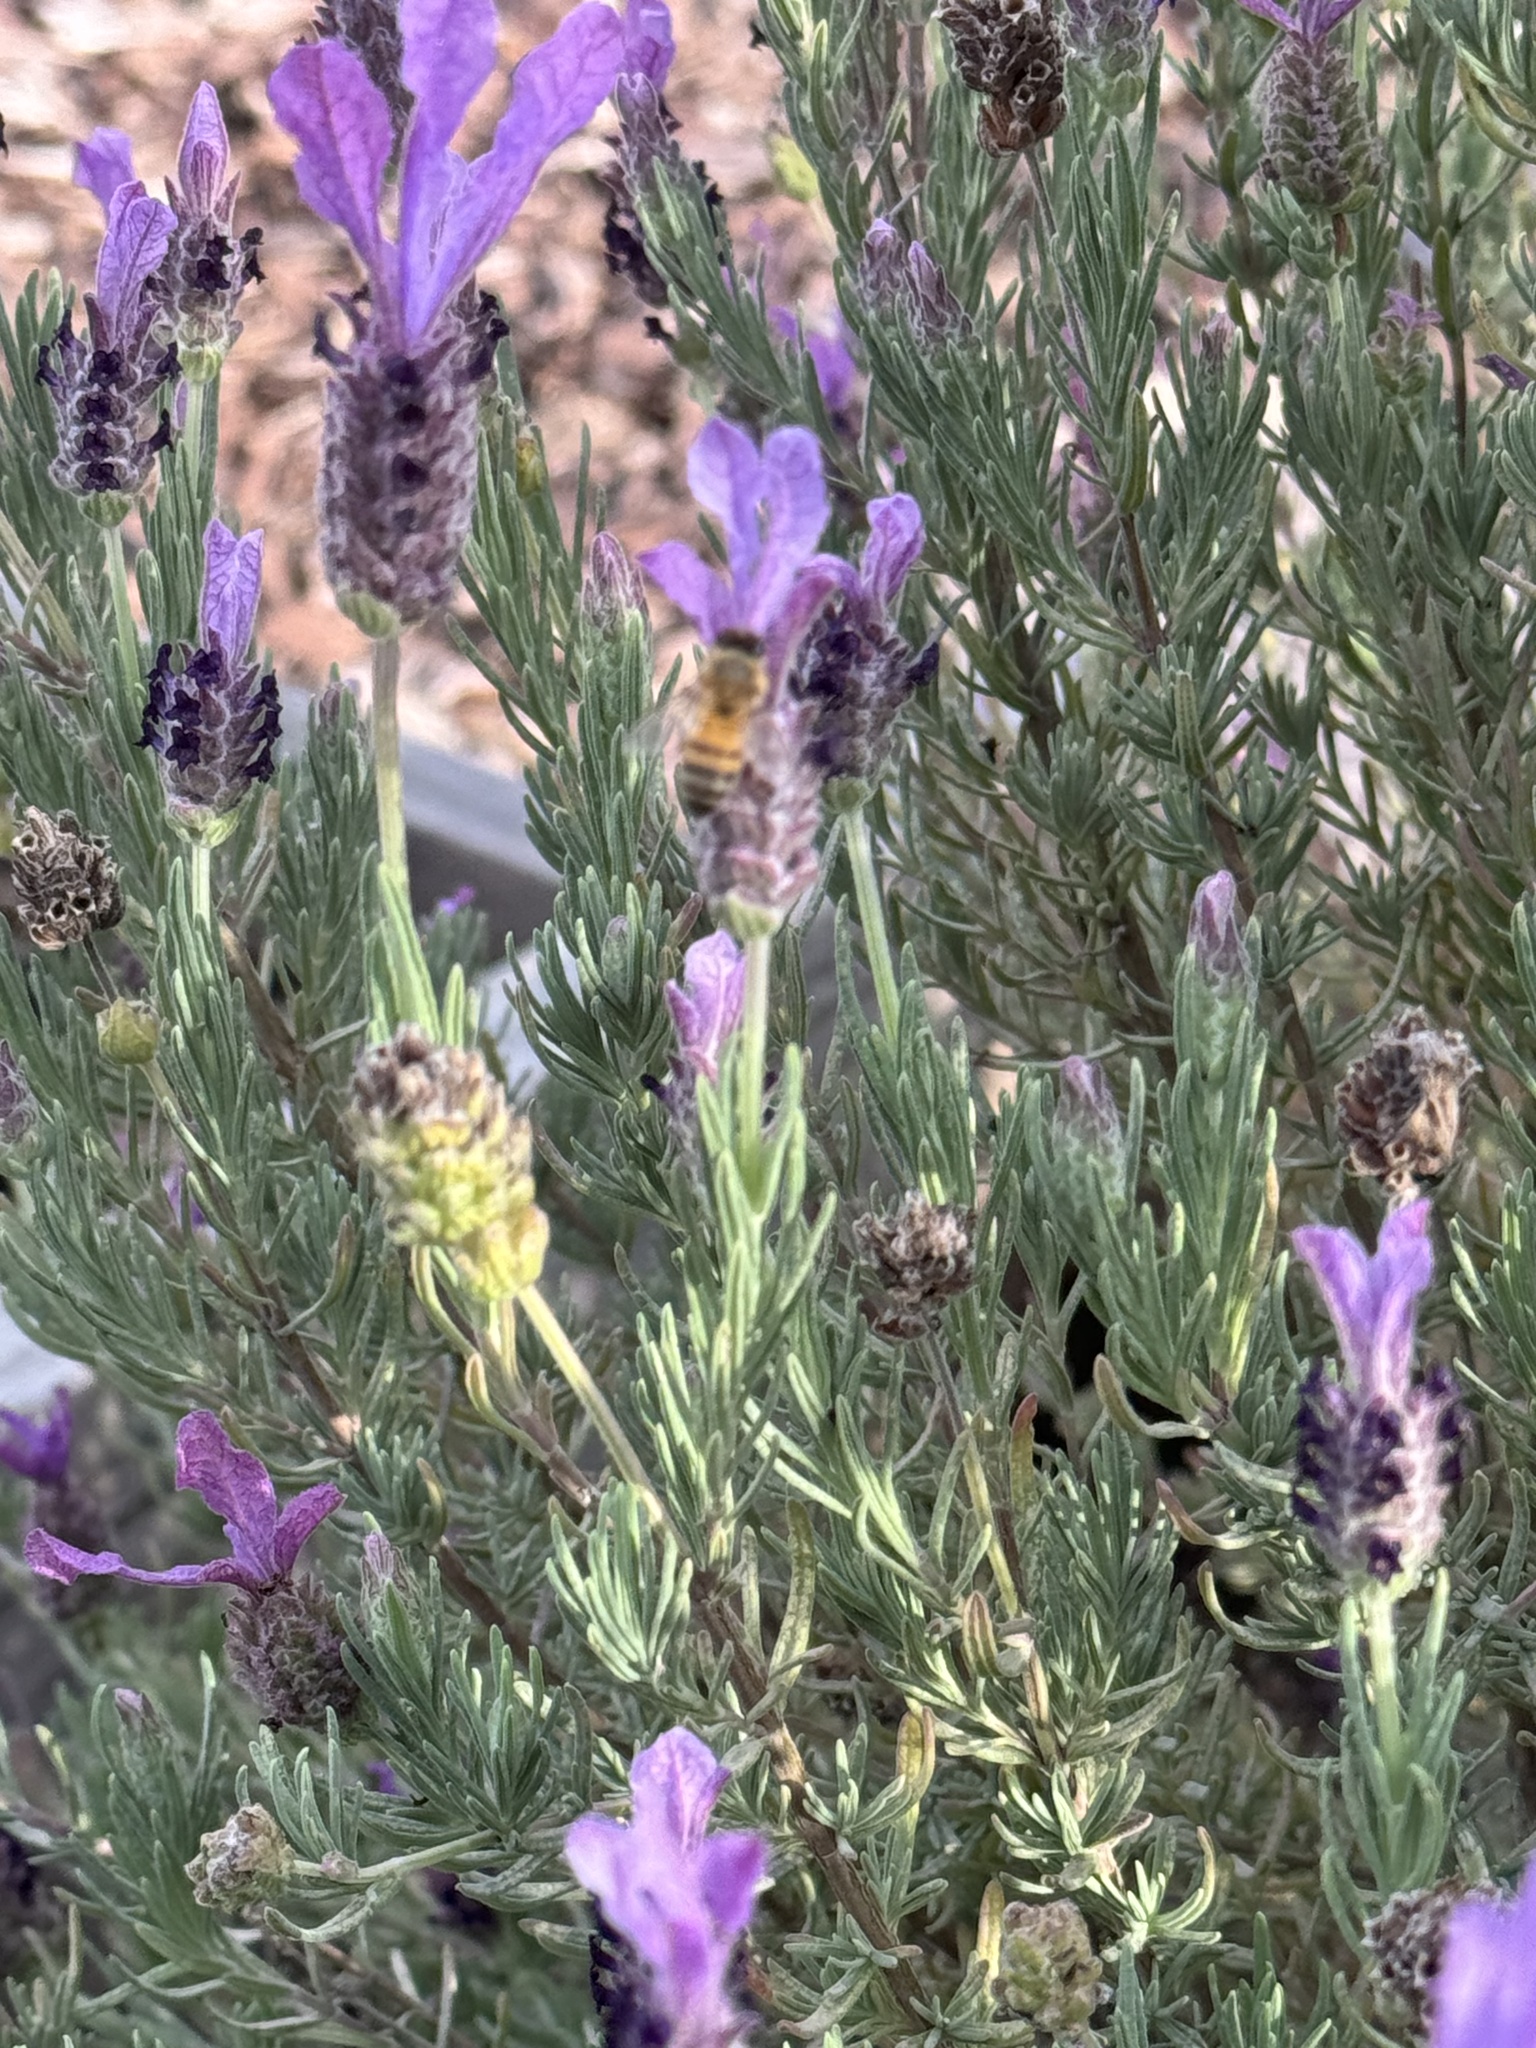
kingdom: Animalia
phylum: Arthropoda
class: Insecta
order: Hymenoptera
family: Apidae
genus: Apis
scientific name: Apis mellifera
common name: Honey bee
